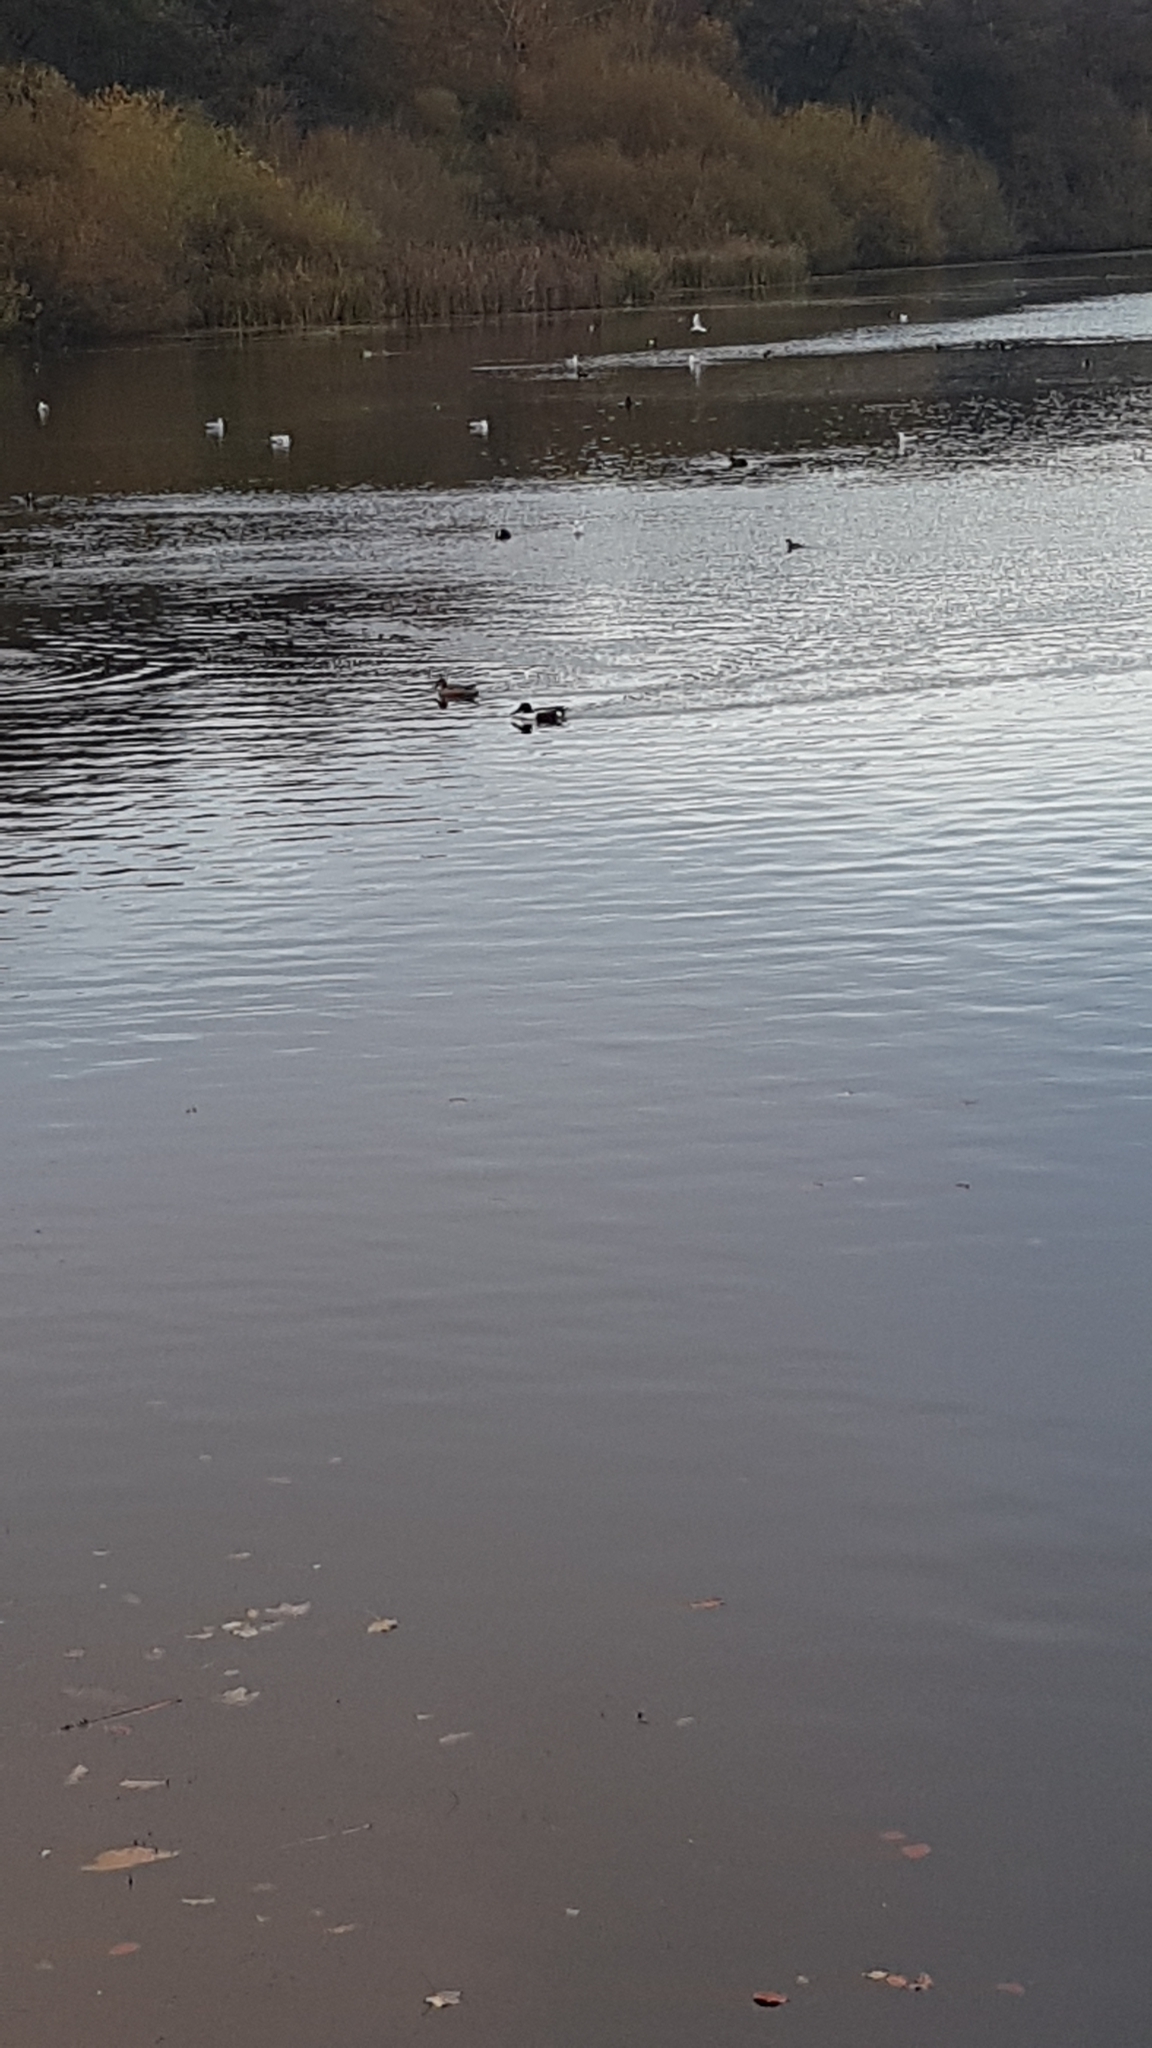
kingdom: Animalia
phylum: Chordata
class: Aves
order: Anseriformes
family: Anatidae
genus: Spatula
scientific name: Spatula clypeata
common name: Northern shoveler
